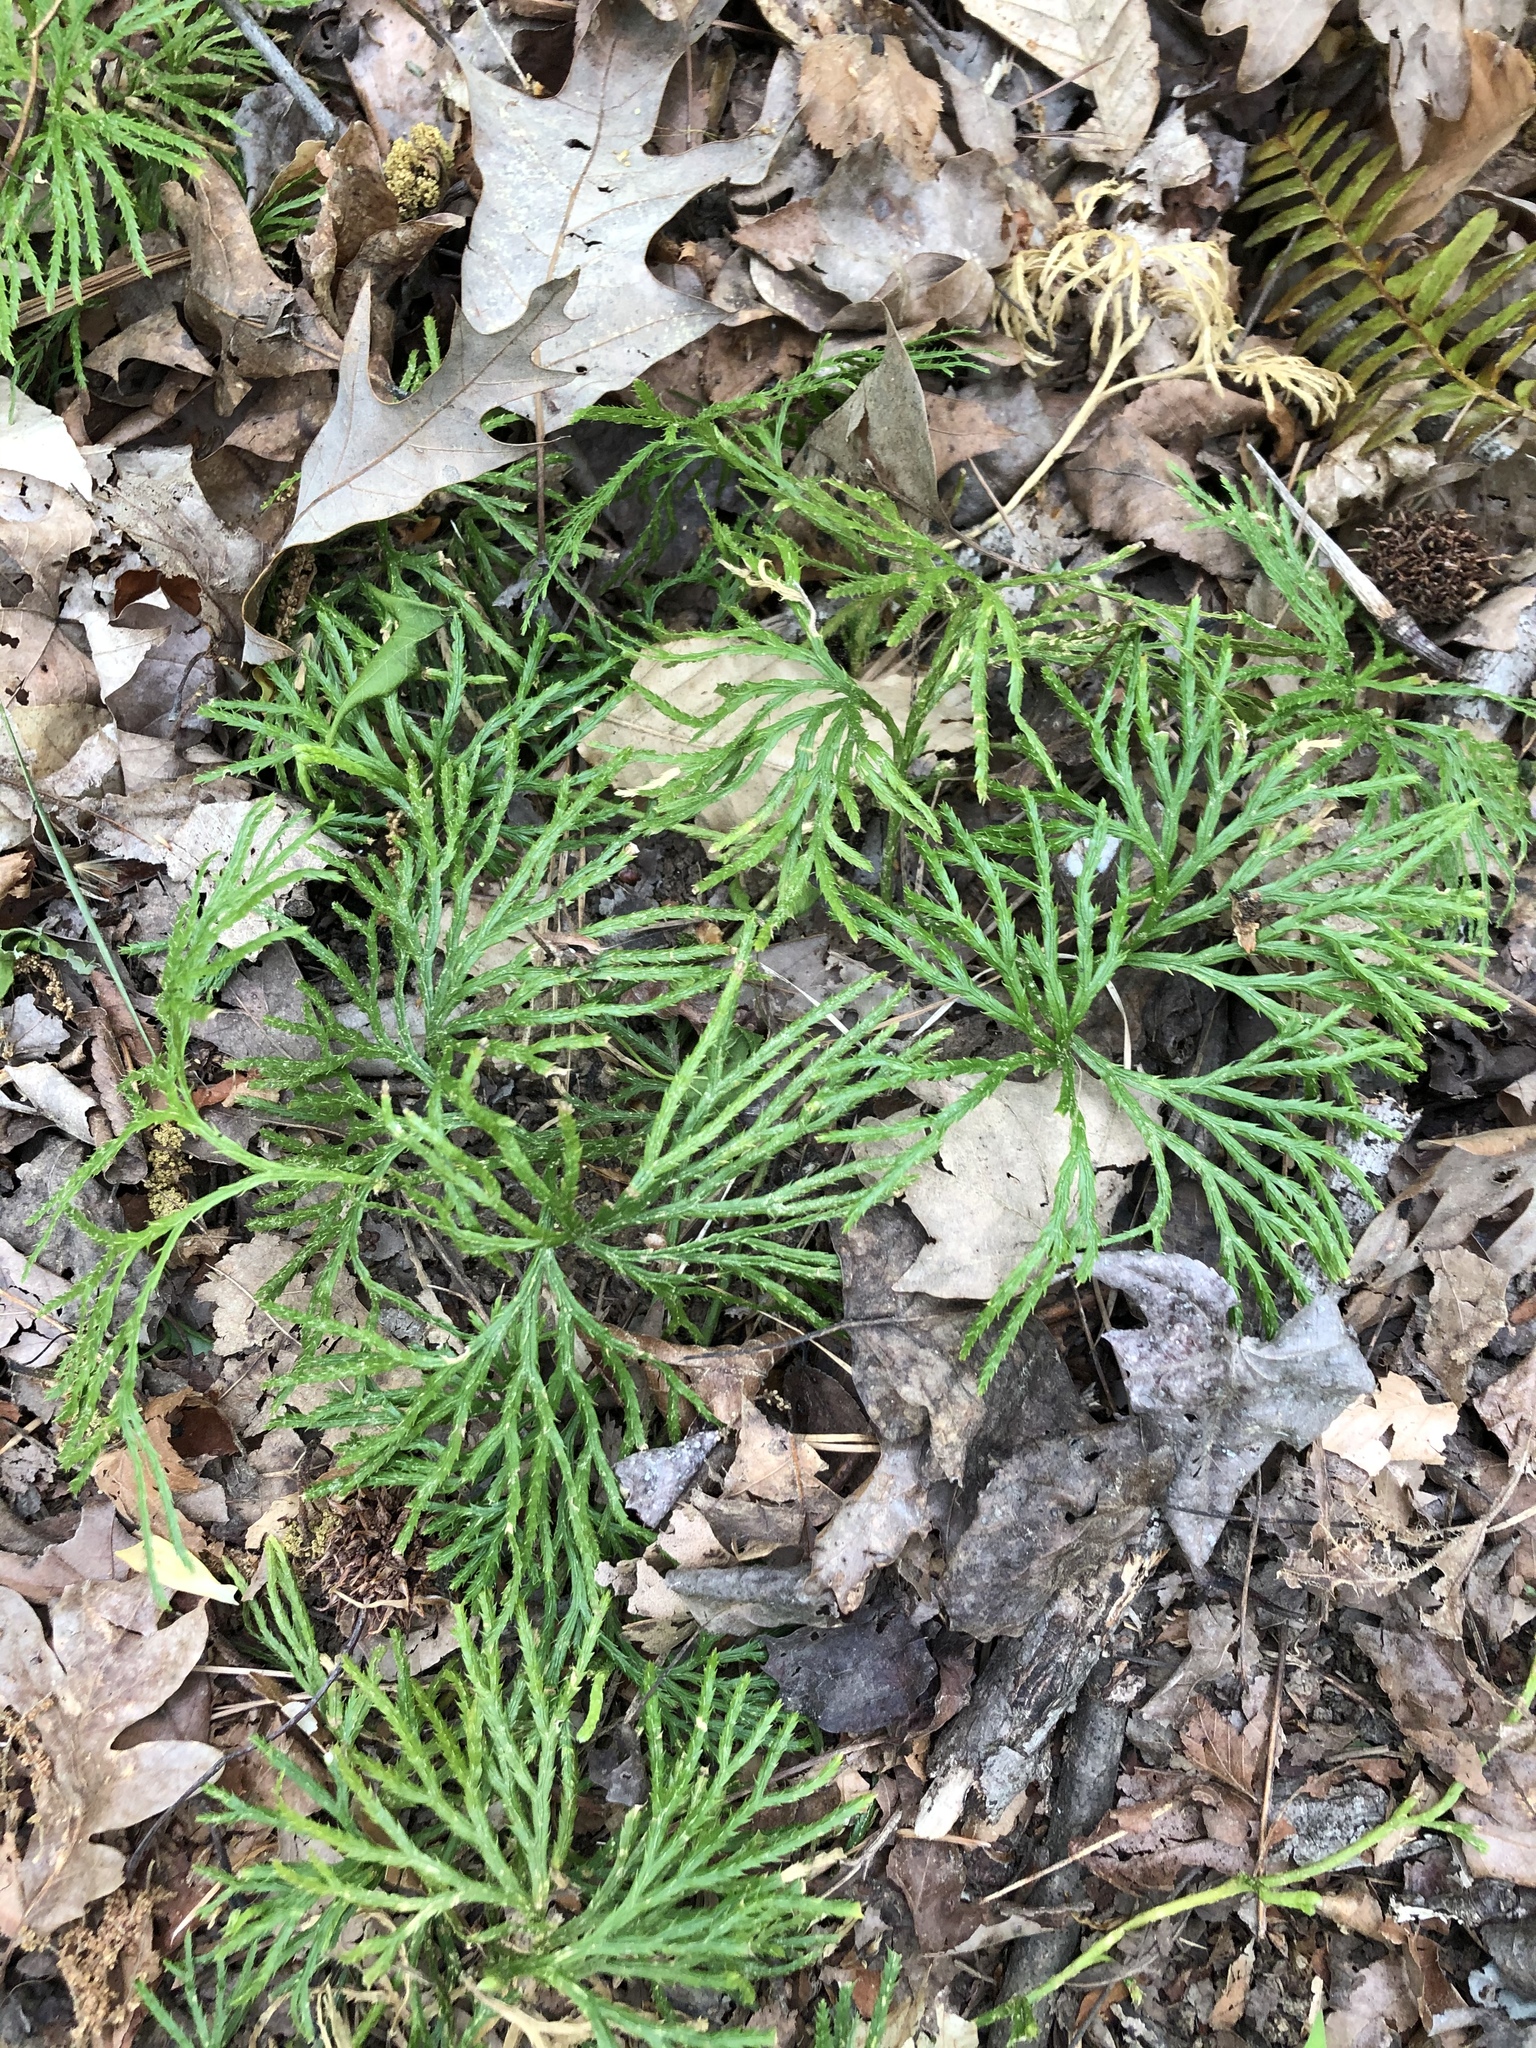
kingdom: Plantae
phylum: Tracheophyta
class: Lycopodiopsida
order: Lycopodiales
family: Lycopodiaceae
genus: Diphasiastrum
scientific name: Diphasiastrum digitatum
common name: Southern running-pine
